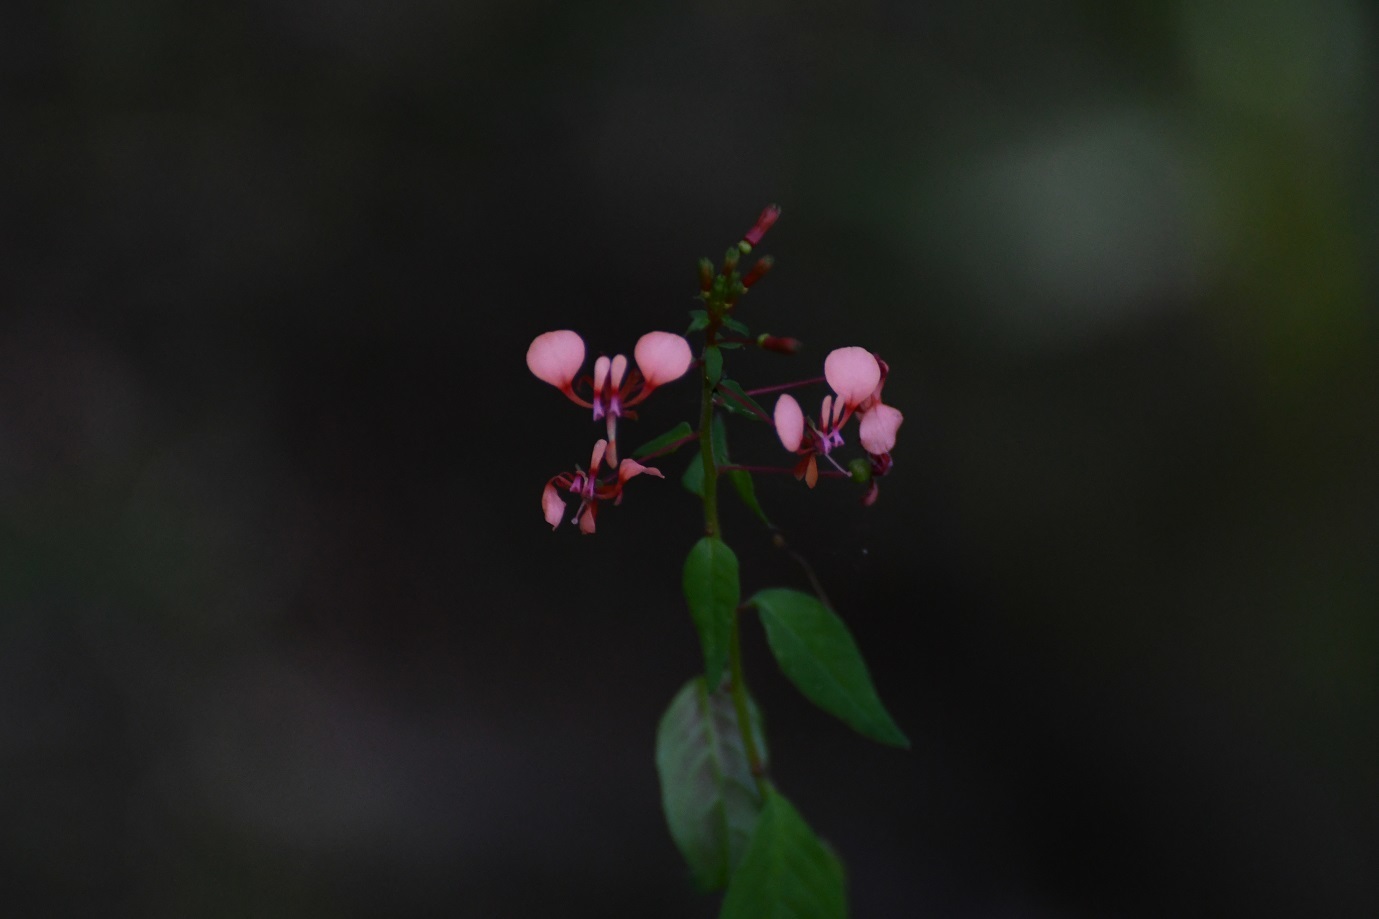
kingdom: Plantae
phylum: Tracheophyta
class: Magnoliopsida
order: Myrtales
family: Onagraceae
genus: Lopezia
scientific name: Lopezia racemosa
